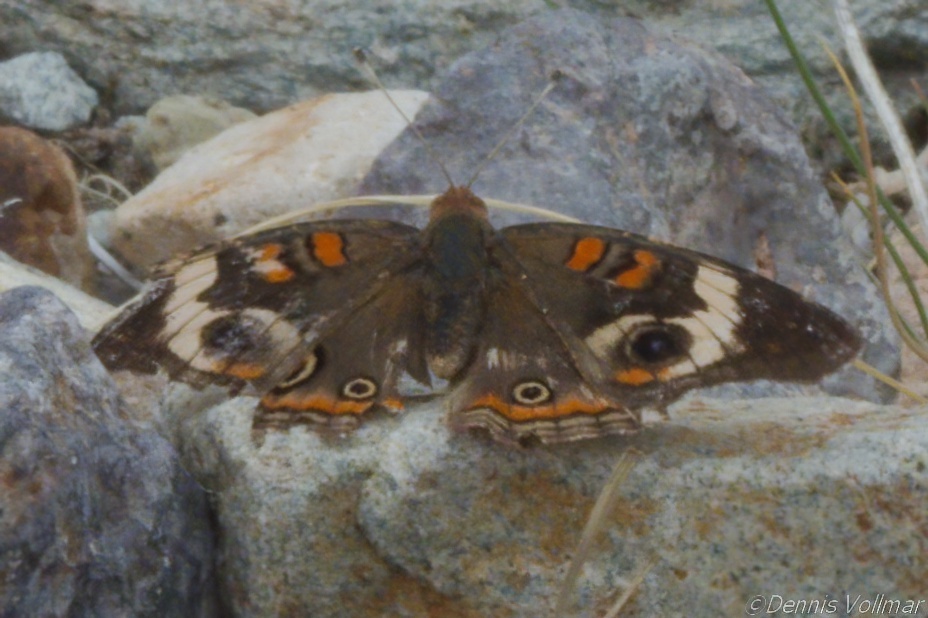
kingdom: Animalia
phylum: Arthropoda
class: Insecta
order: Lepidoptera
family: Nymphalidae
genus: Junonia
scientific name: Junonia coenia
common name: Common buckeye
